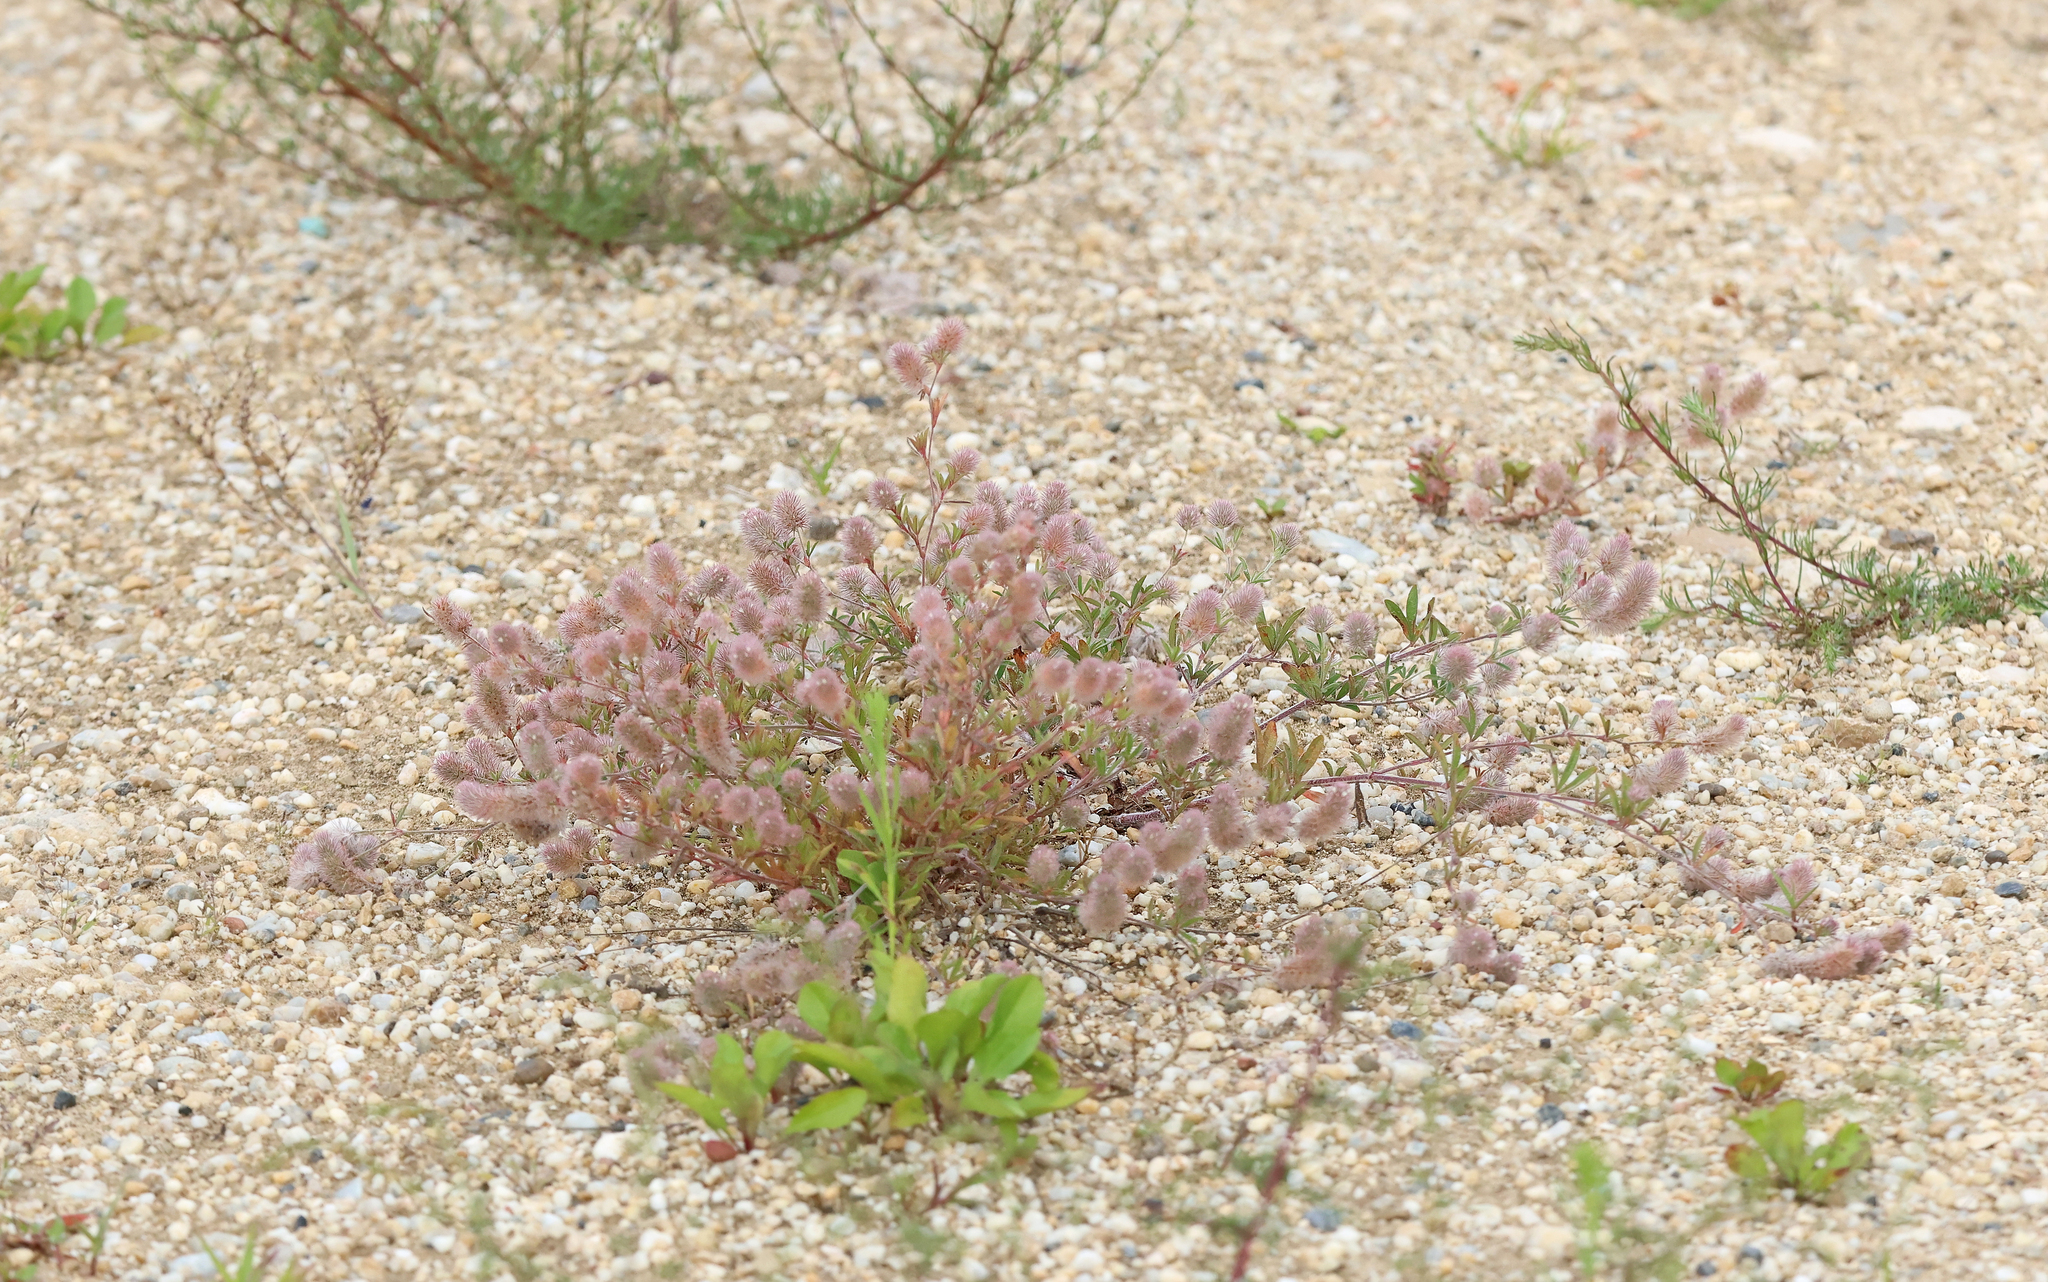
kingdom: Plantae
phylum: Tracheophyta
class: Magnoliopsida
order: Fabales
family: Fabaceae
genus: Trifolium
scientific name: Trifolium arvense
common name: Hare's-foot clover
